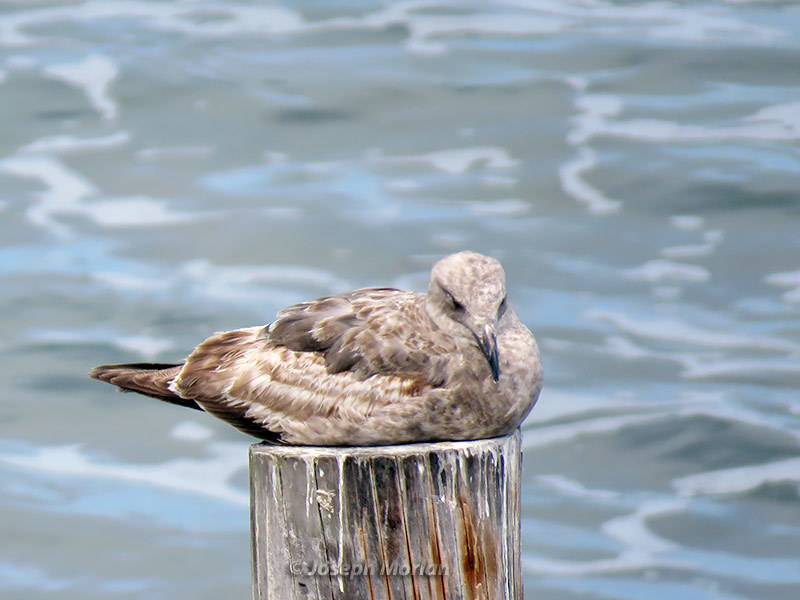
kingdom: Animalia
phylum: Chordata
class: Aves
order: Charadriiformes
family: Laridae
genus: Larus
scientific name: Larus occidentalis
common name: Western gull
